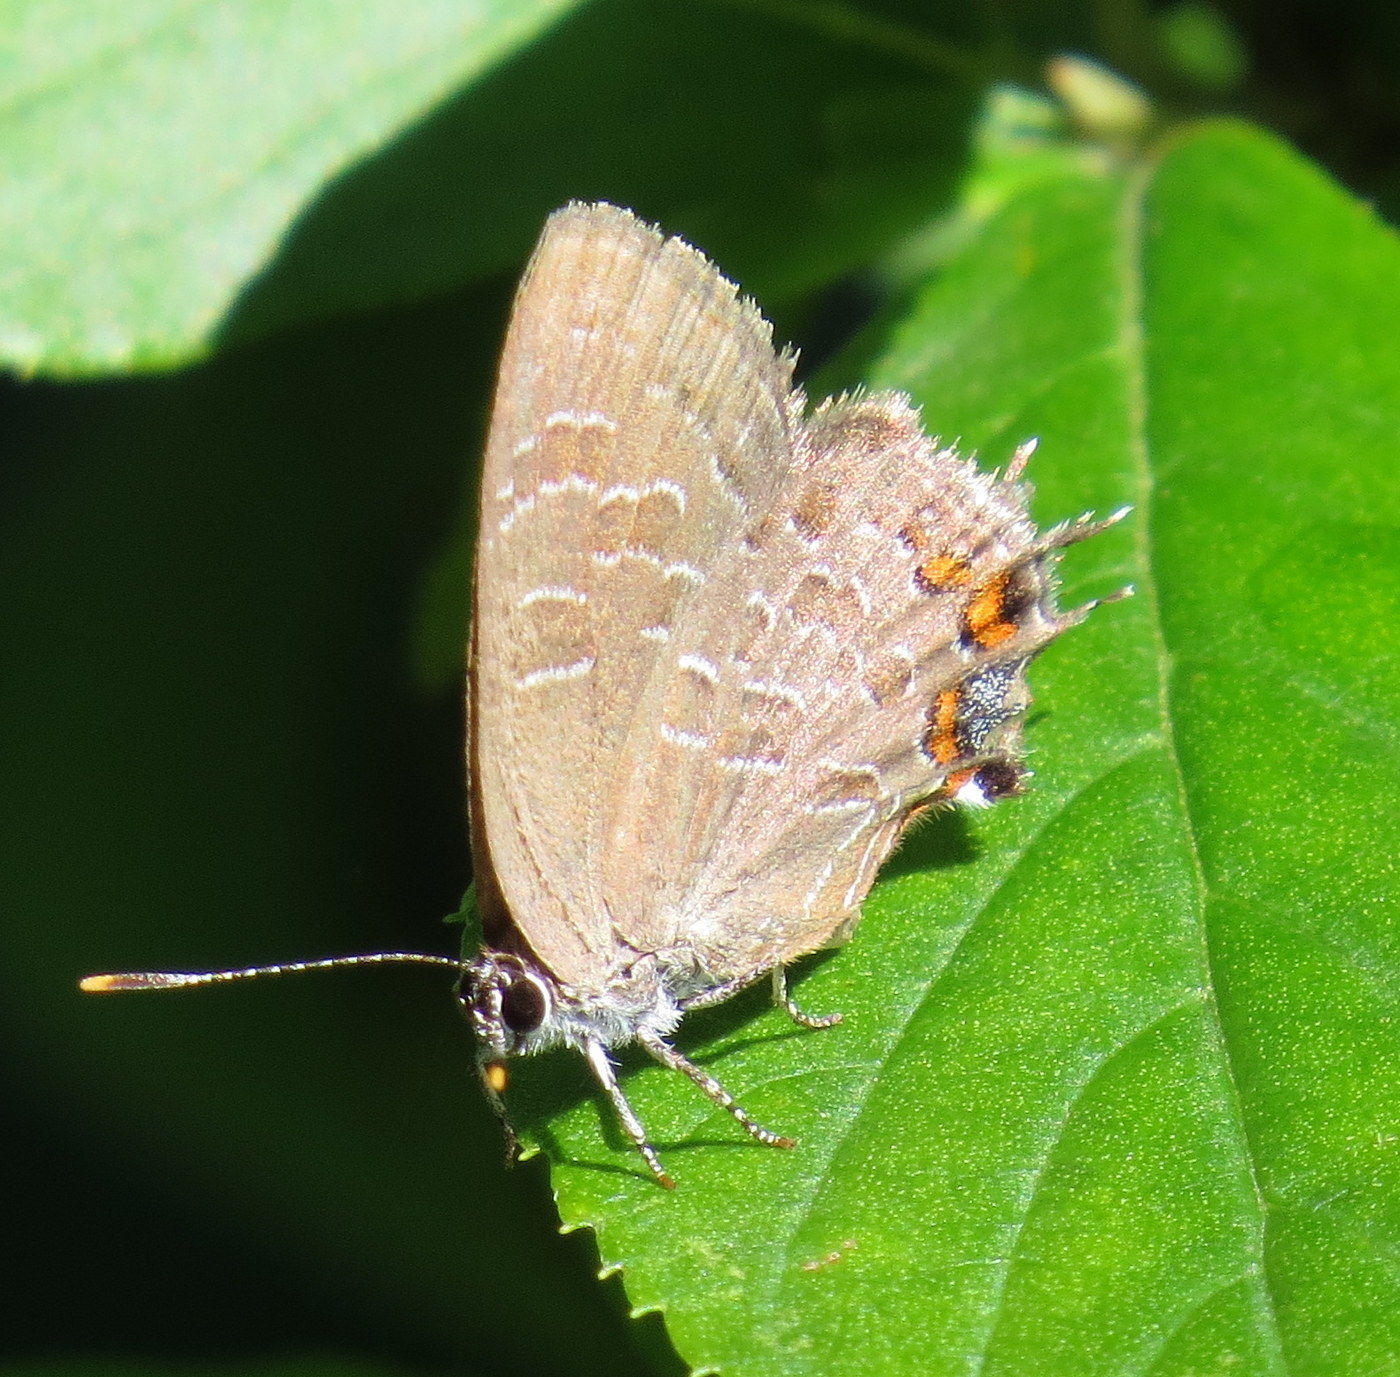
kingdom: Animalia
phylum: Arthropoda
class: Insecta
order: Lepidoptera
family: Lycaenidae
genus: Satyrium
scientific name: Satyrium liparops
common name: Striped hairstreak
